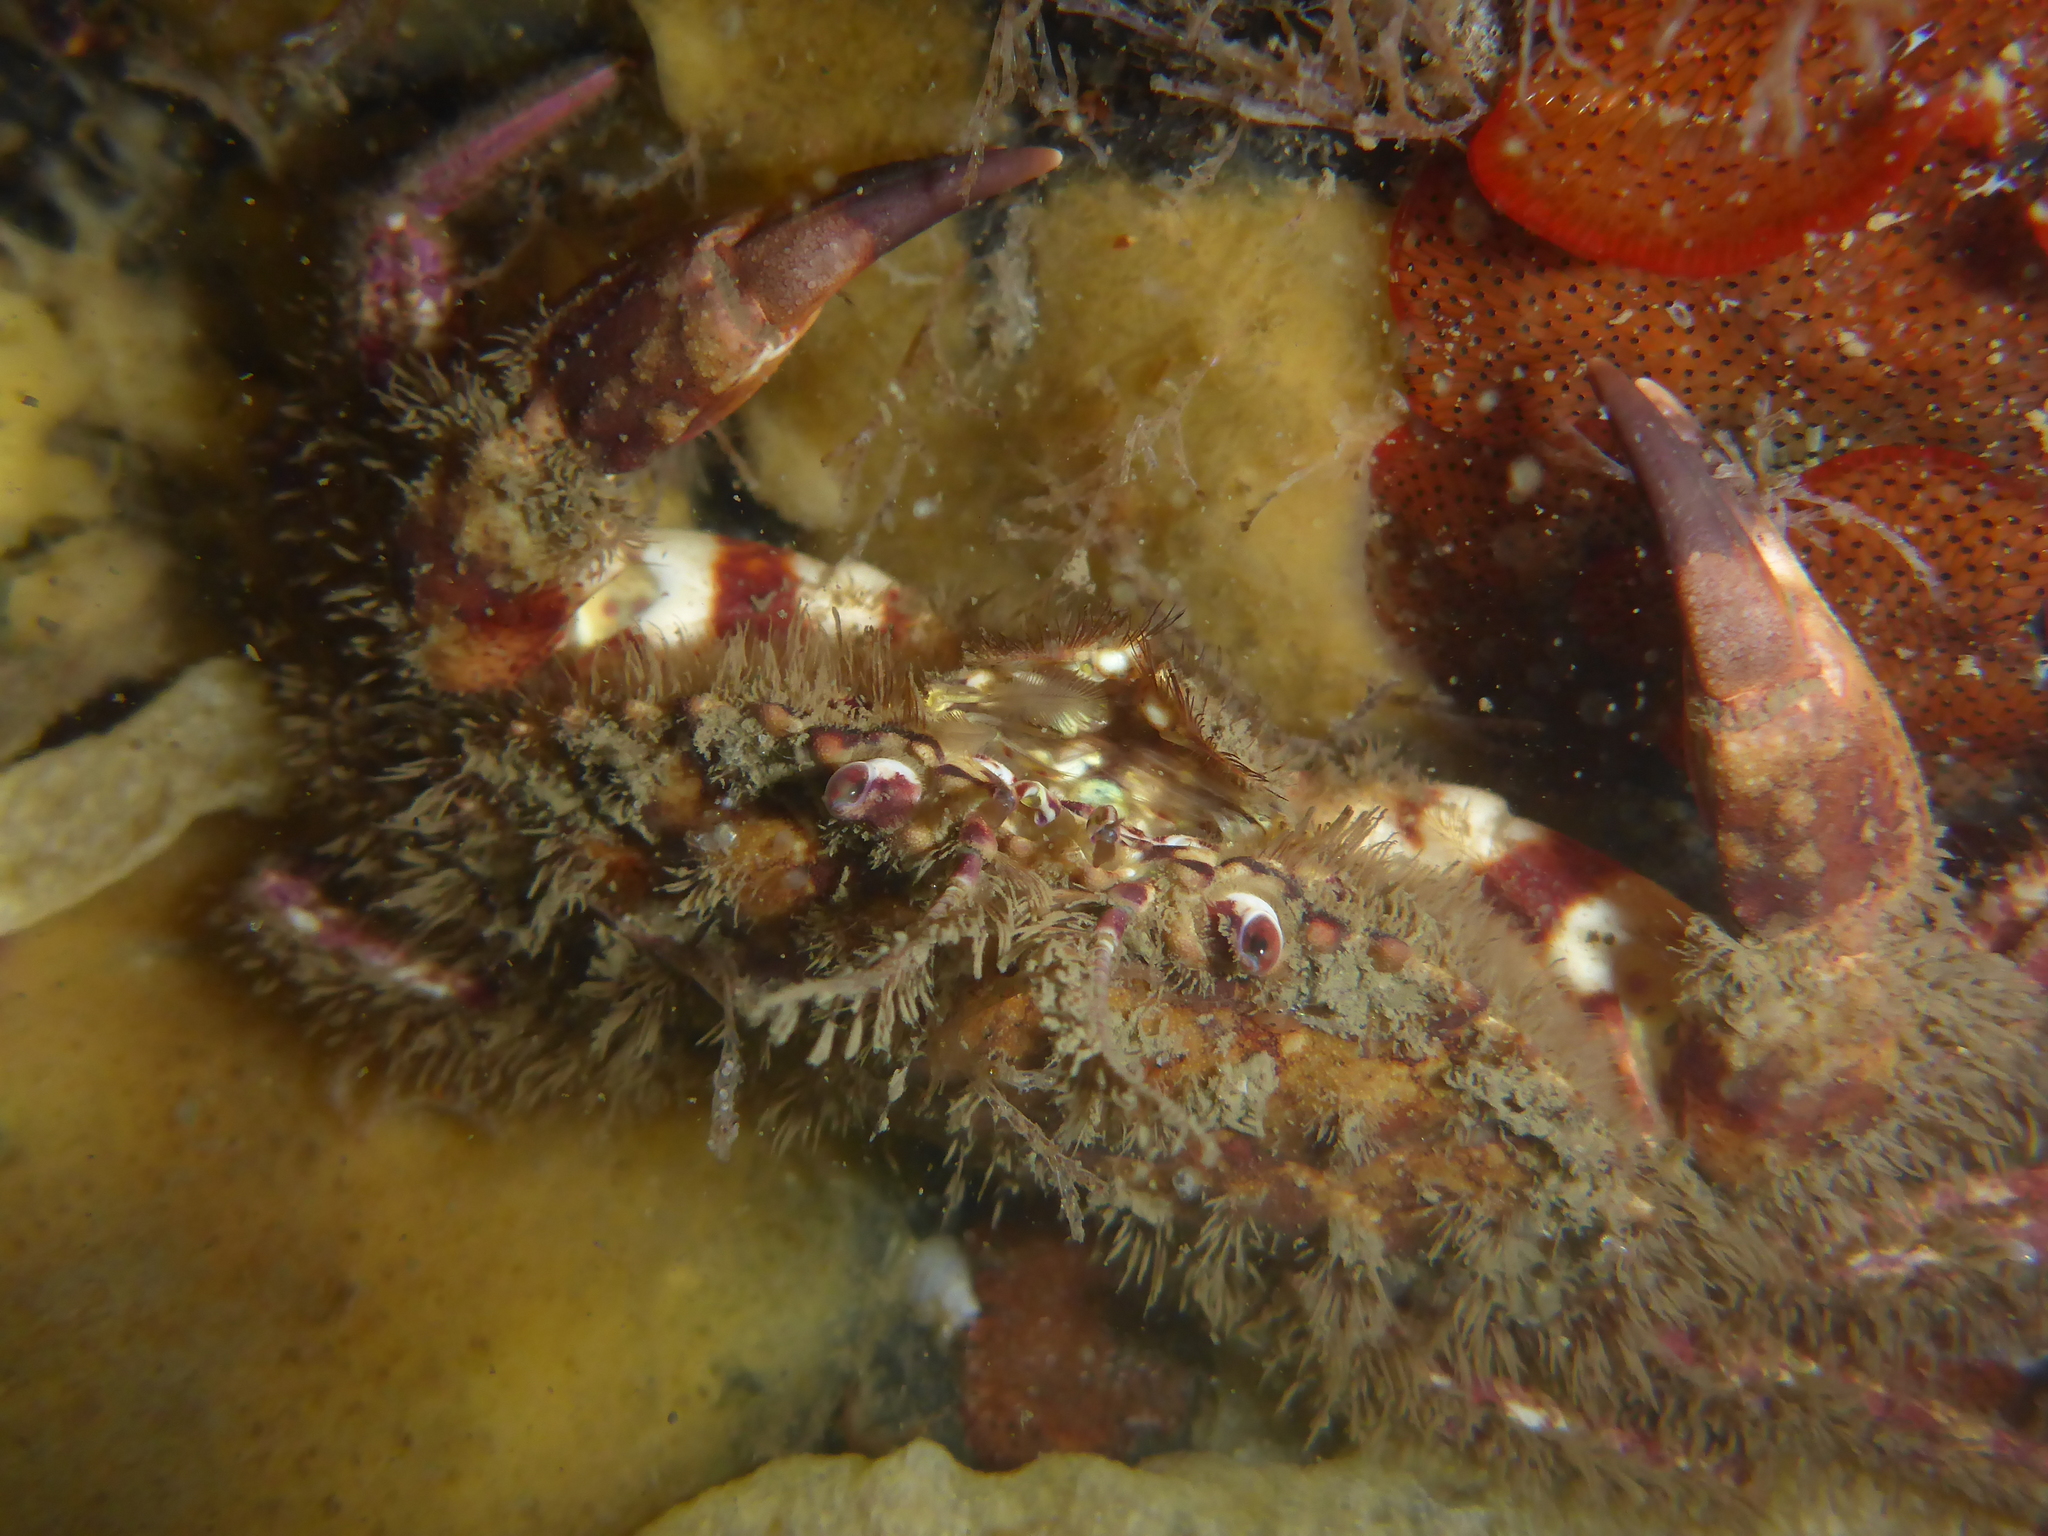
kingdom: Animalia
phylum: Arthropoda
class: Malacostraca
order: Decapoda
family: Cancridae
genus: Romaleon
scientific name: Romaleon antennarium
